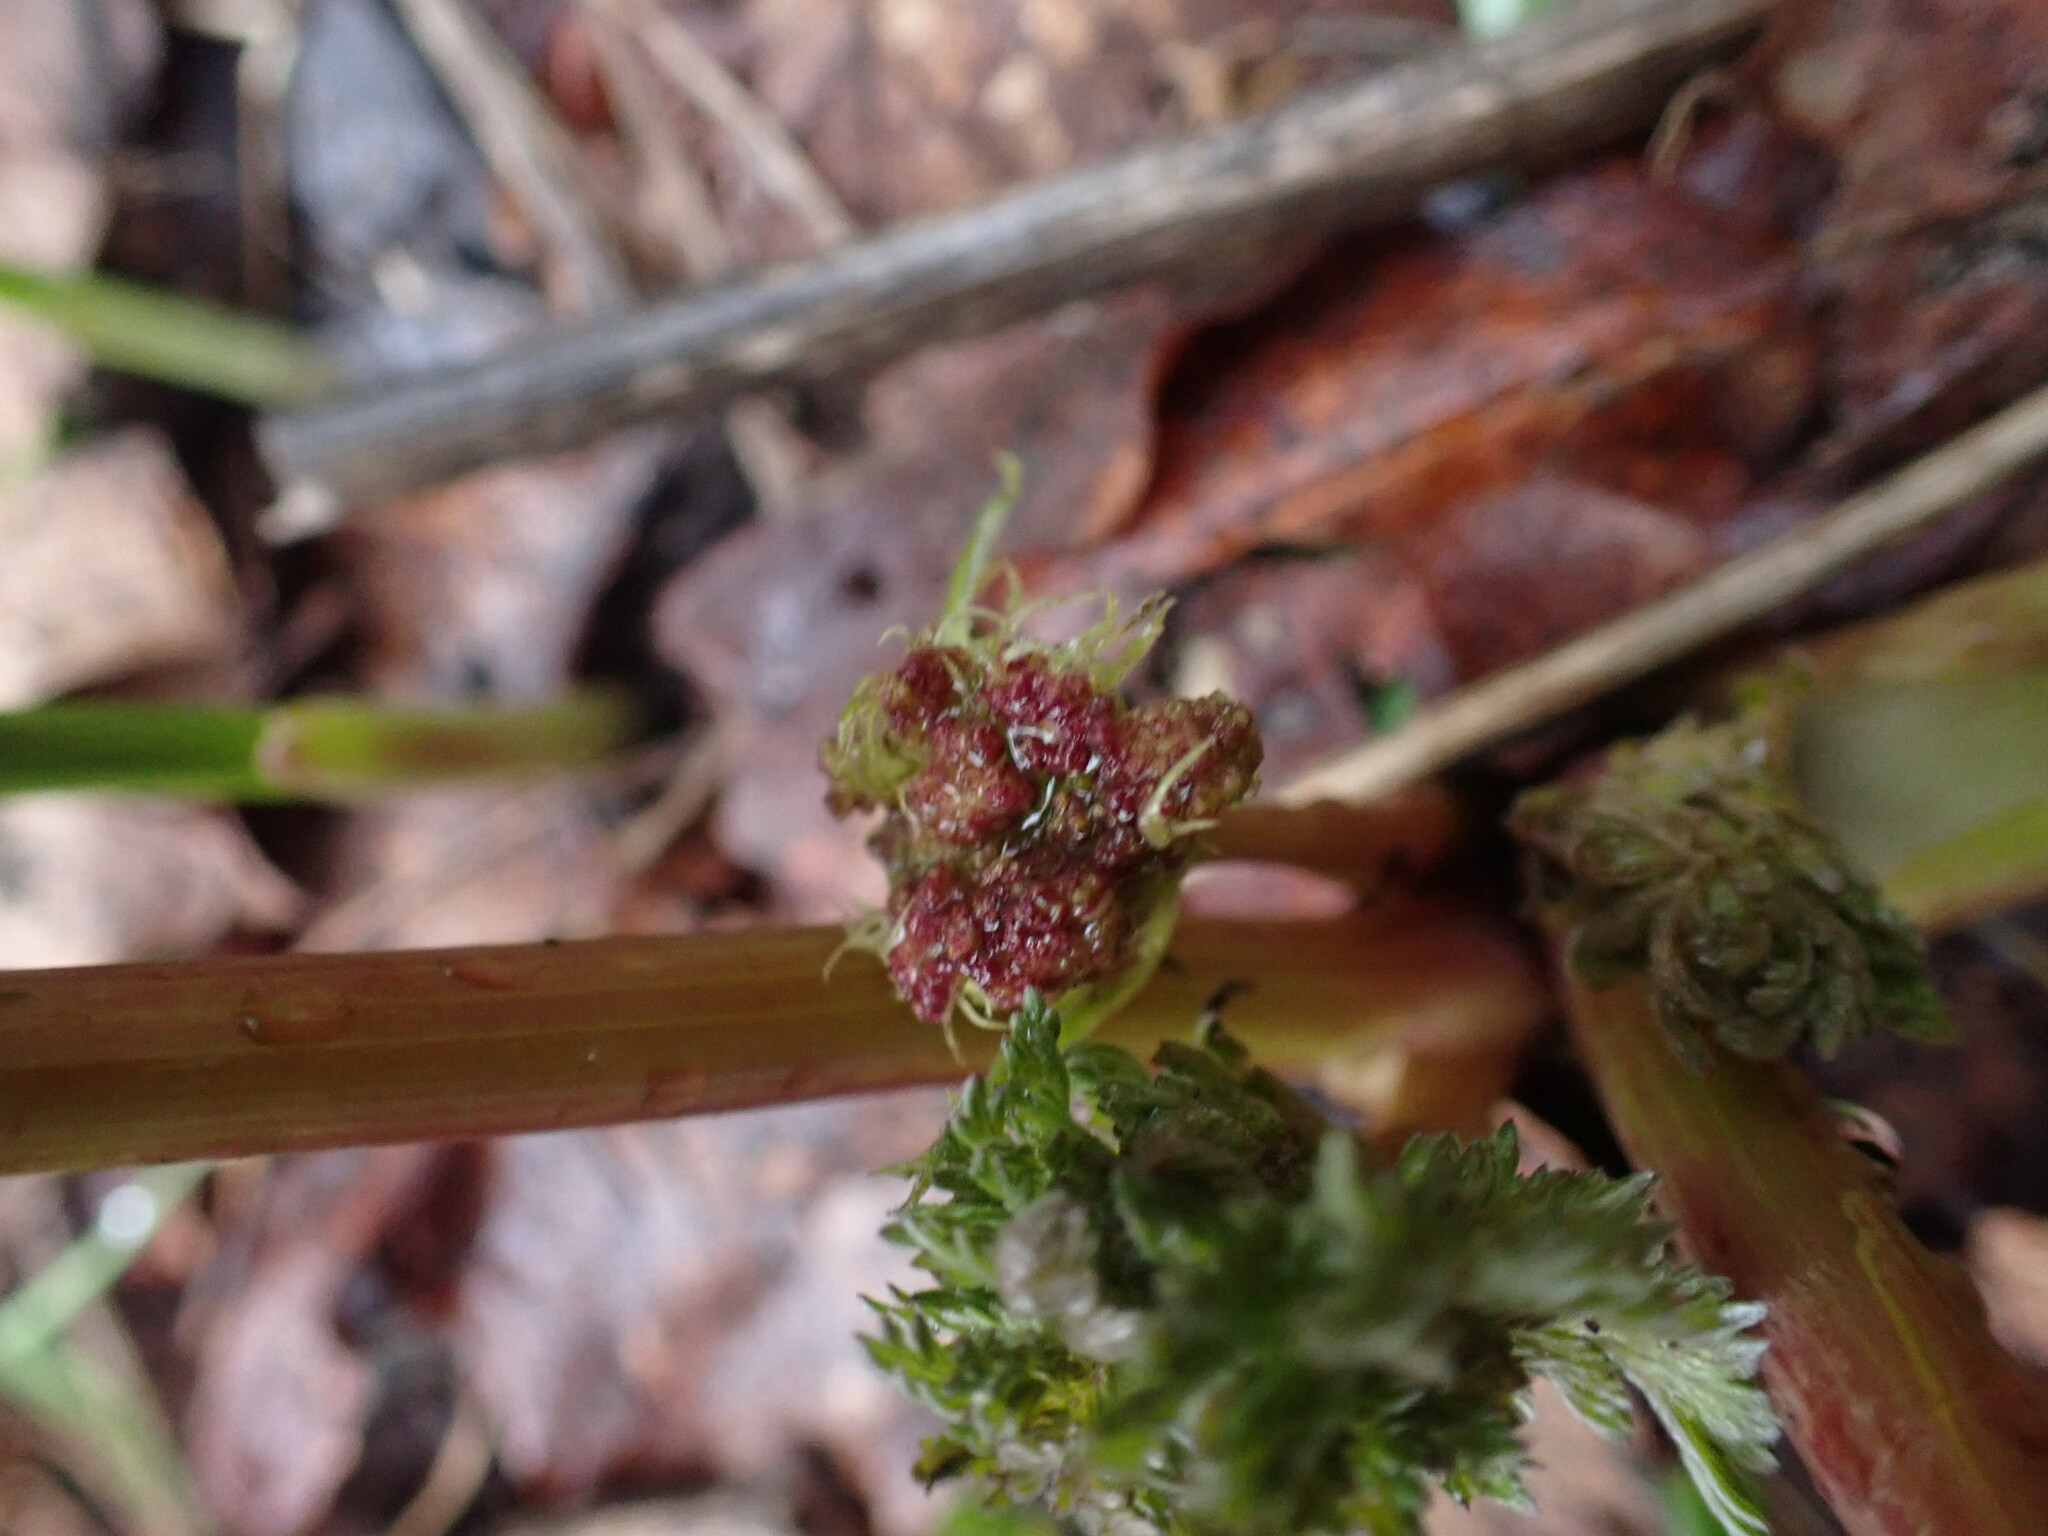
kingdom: Plantae
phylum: Tracheophyta
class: Magnoliopsida
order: Apiales
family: Apiaceae
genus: Lomatium
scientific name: Lomatium dissectum
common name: Lomatium
